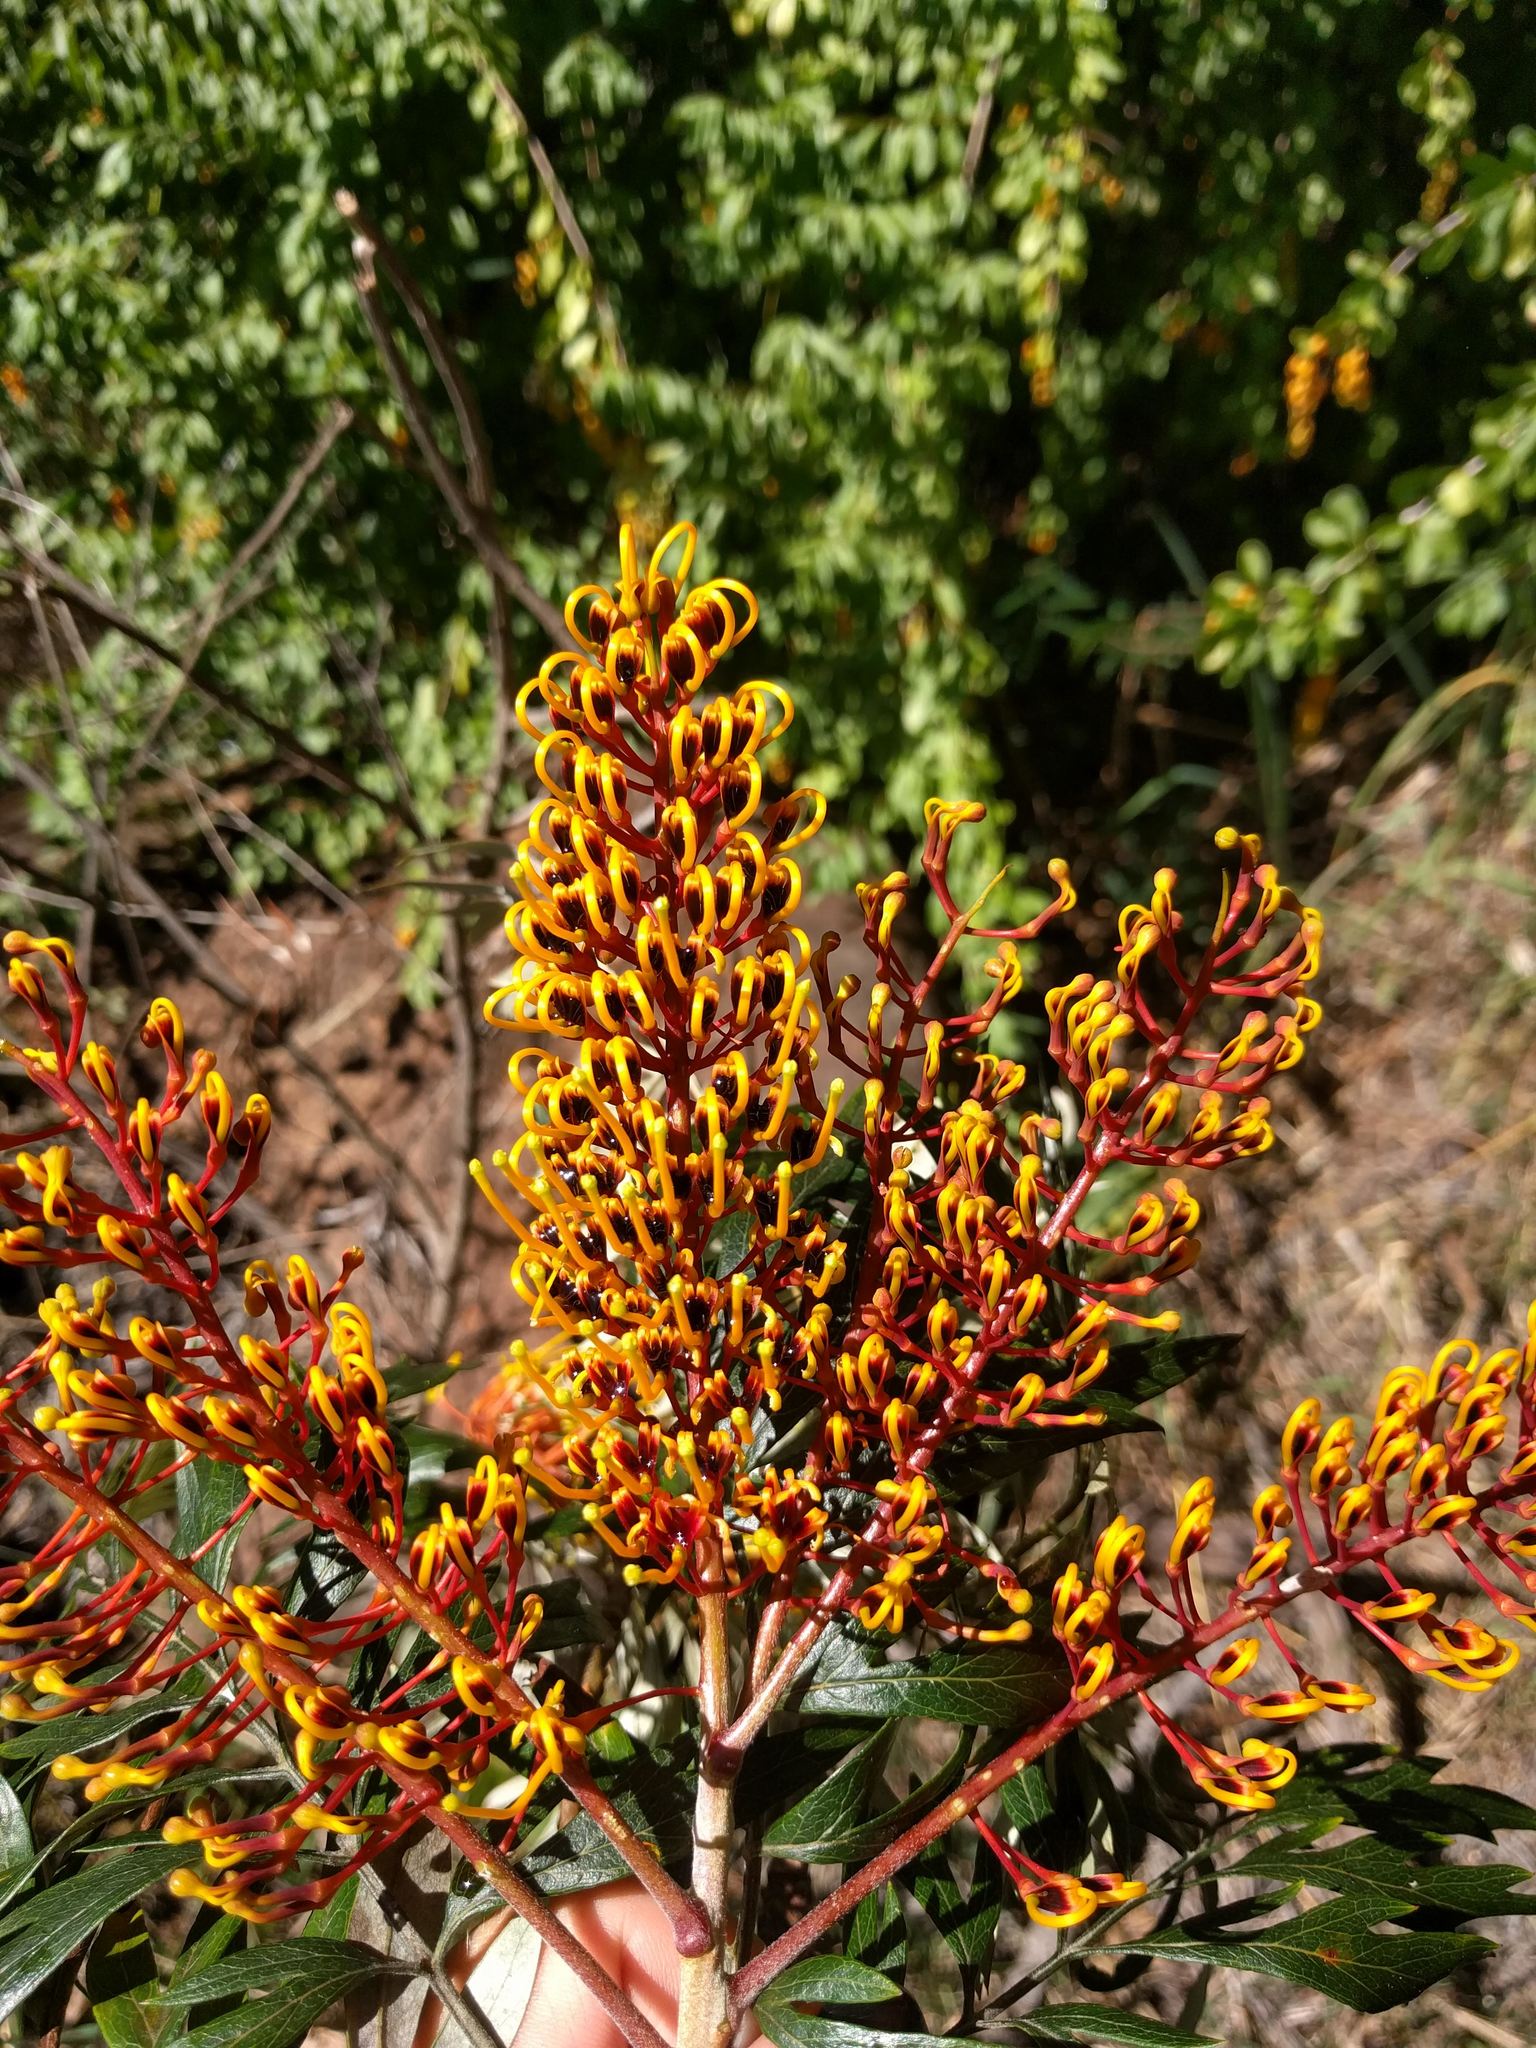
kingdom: Plantae
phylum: Tracheophyta
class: Magnoliopsida
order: Proteales
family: Proteaceae
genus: Grevillea
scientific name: Grevillea robusta
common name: Silkoak
